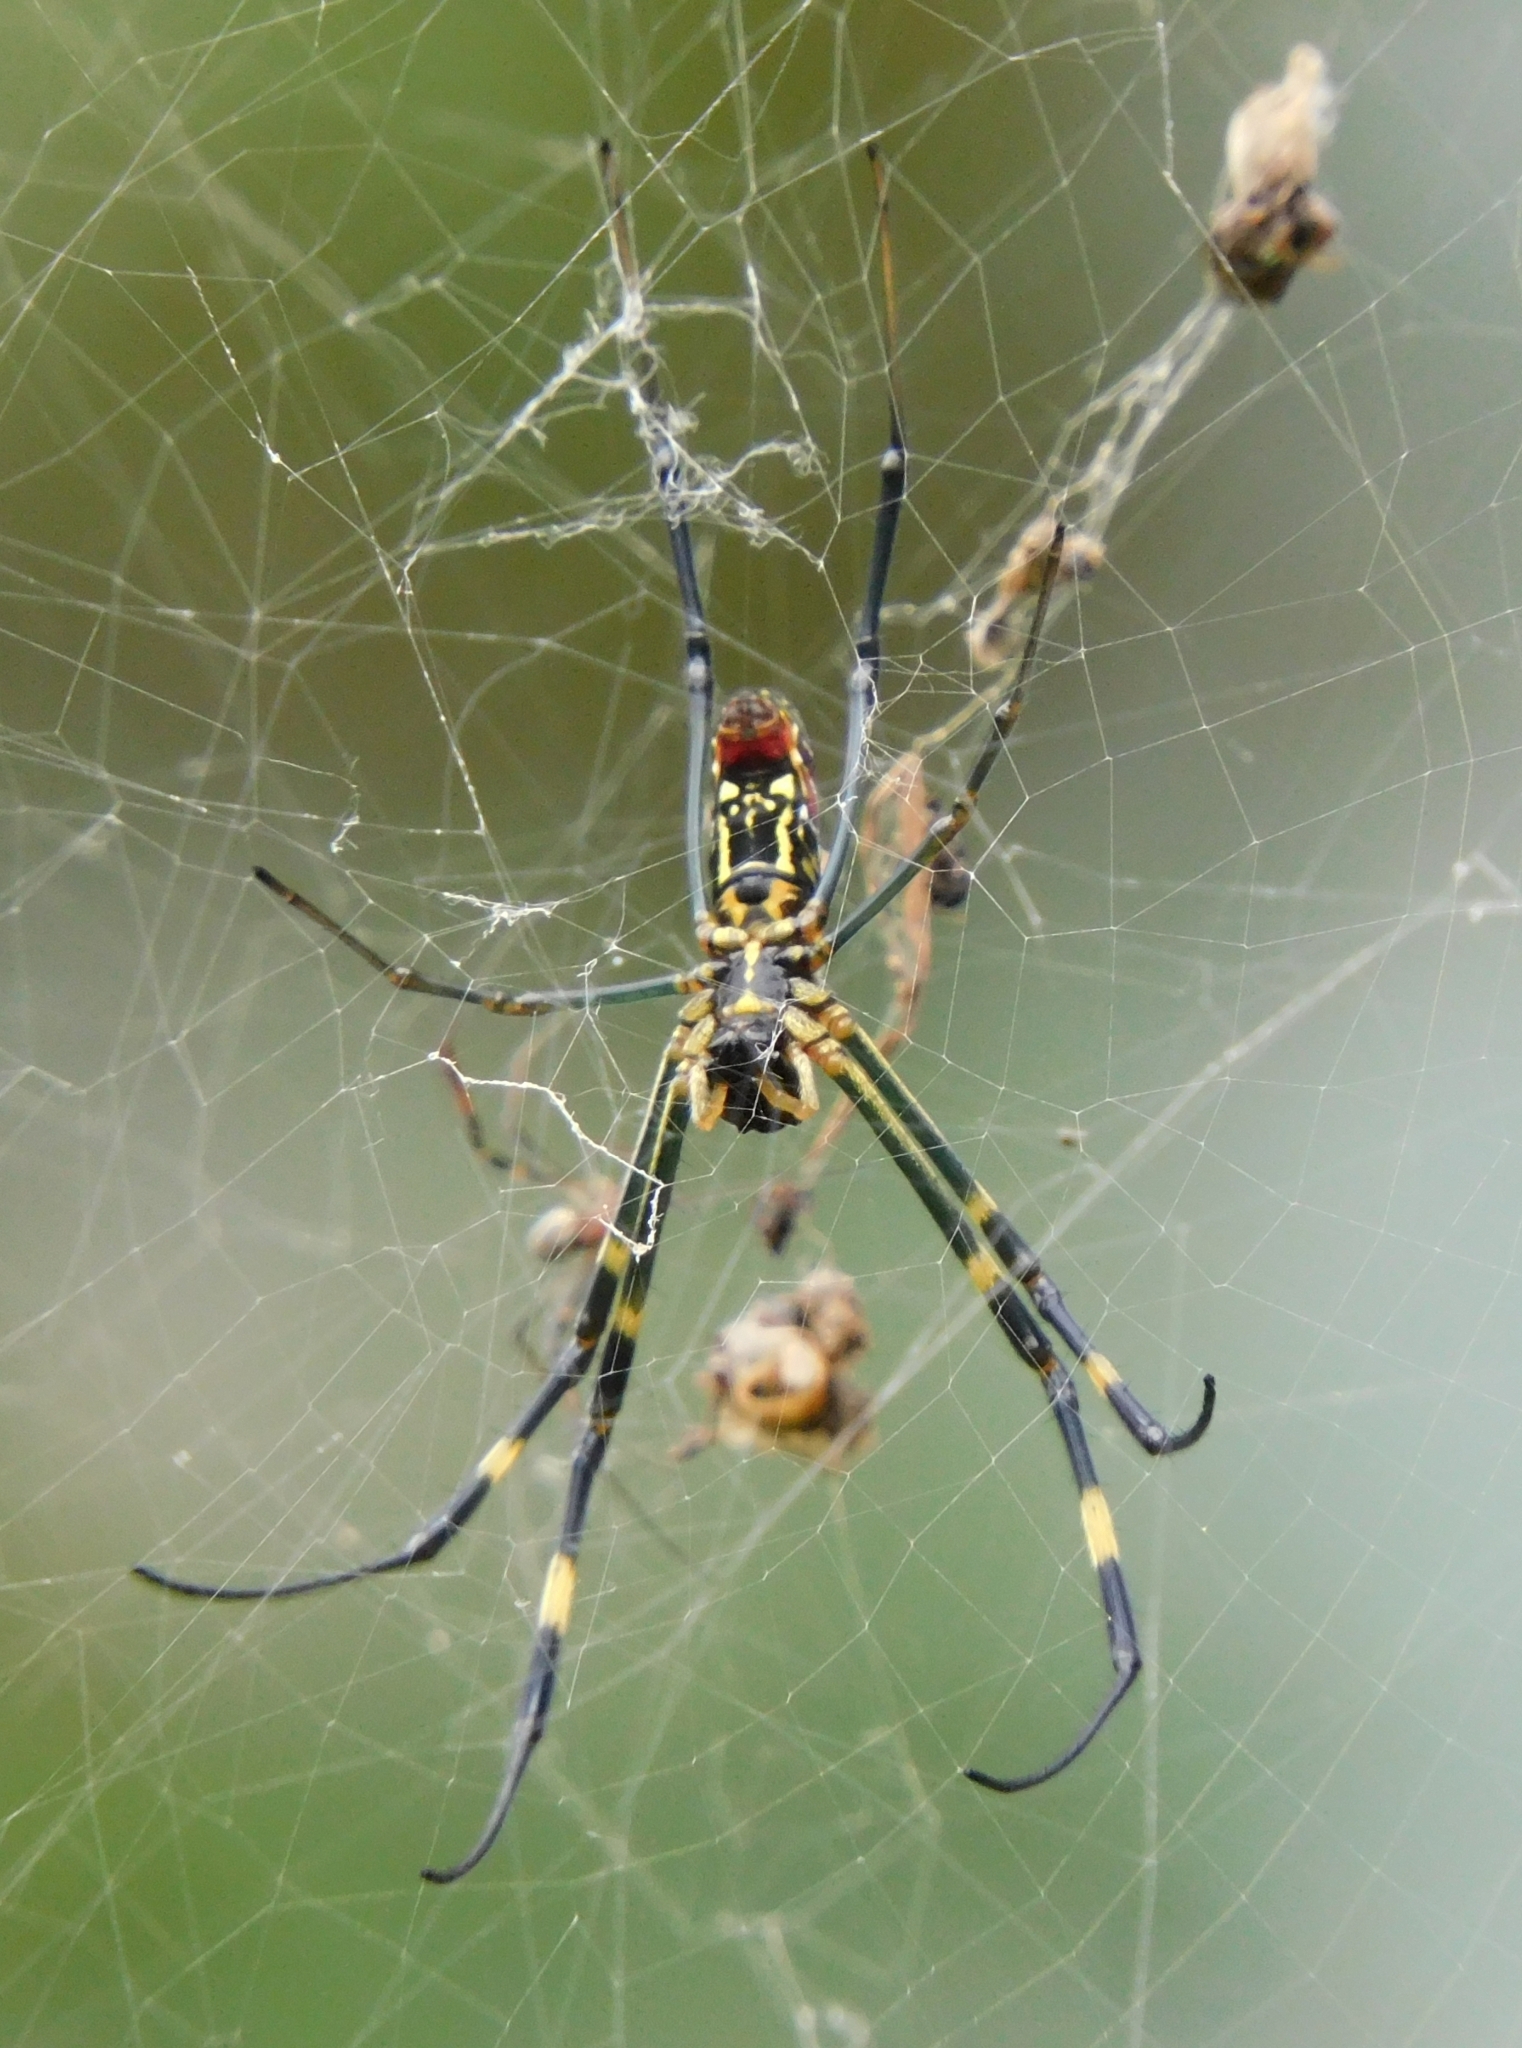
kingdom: Animalia
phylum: Arthropoda
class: Arachnida
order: Araneae
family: Araneidae
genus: Trichonephila
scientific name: Trichonephila clavata
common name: Jorō spider
